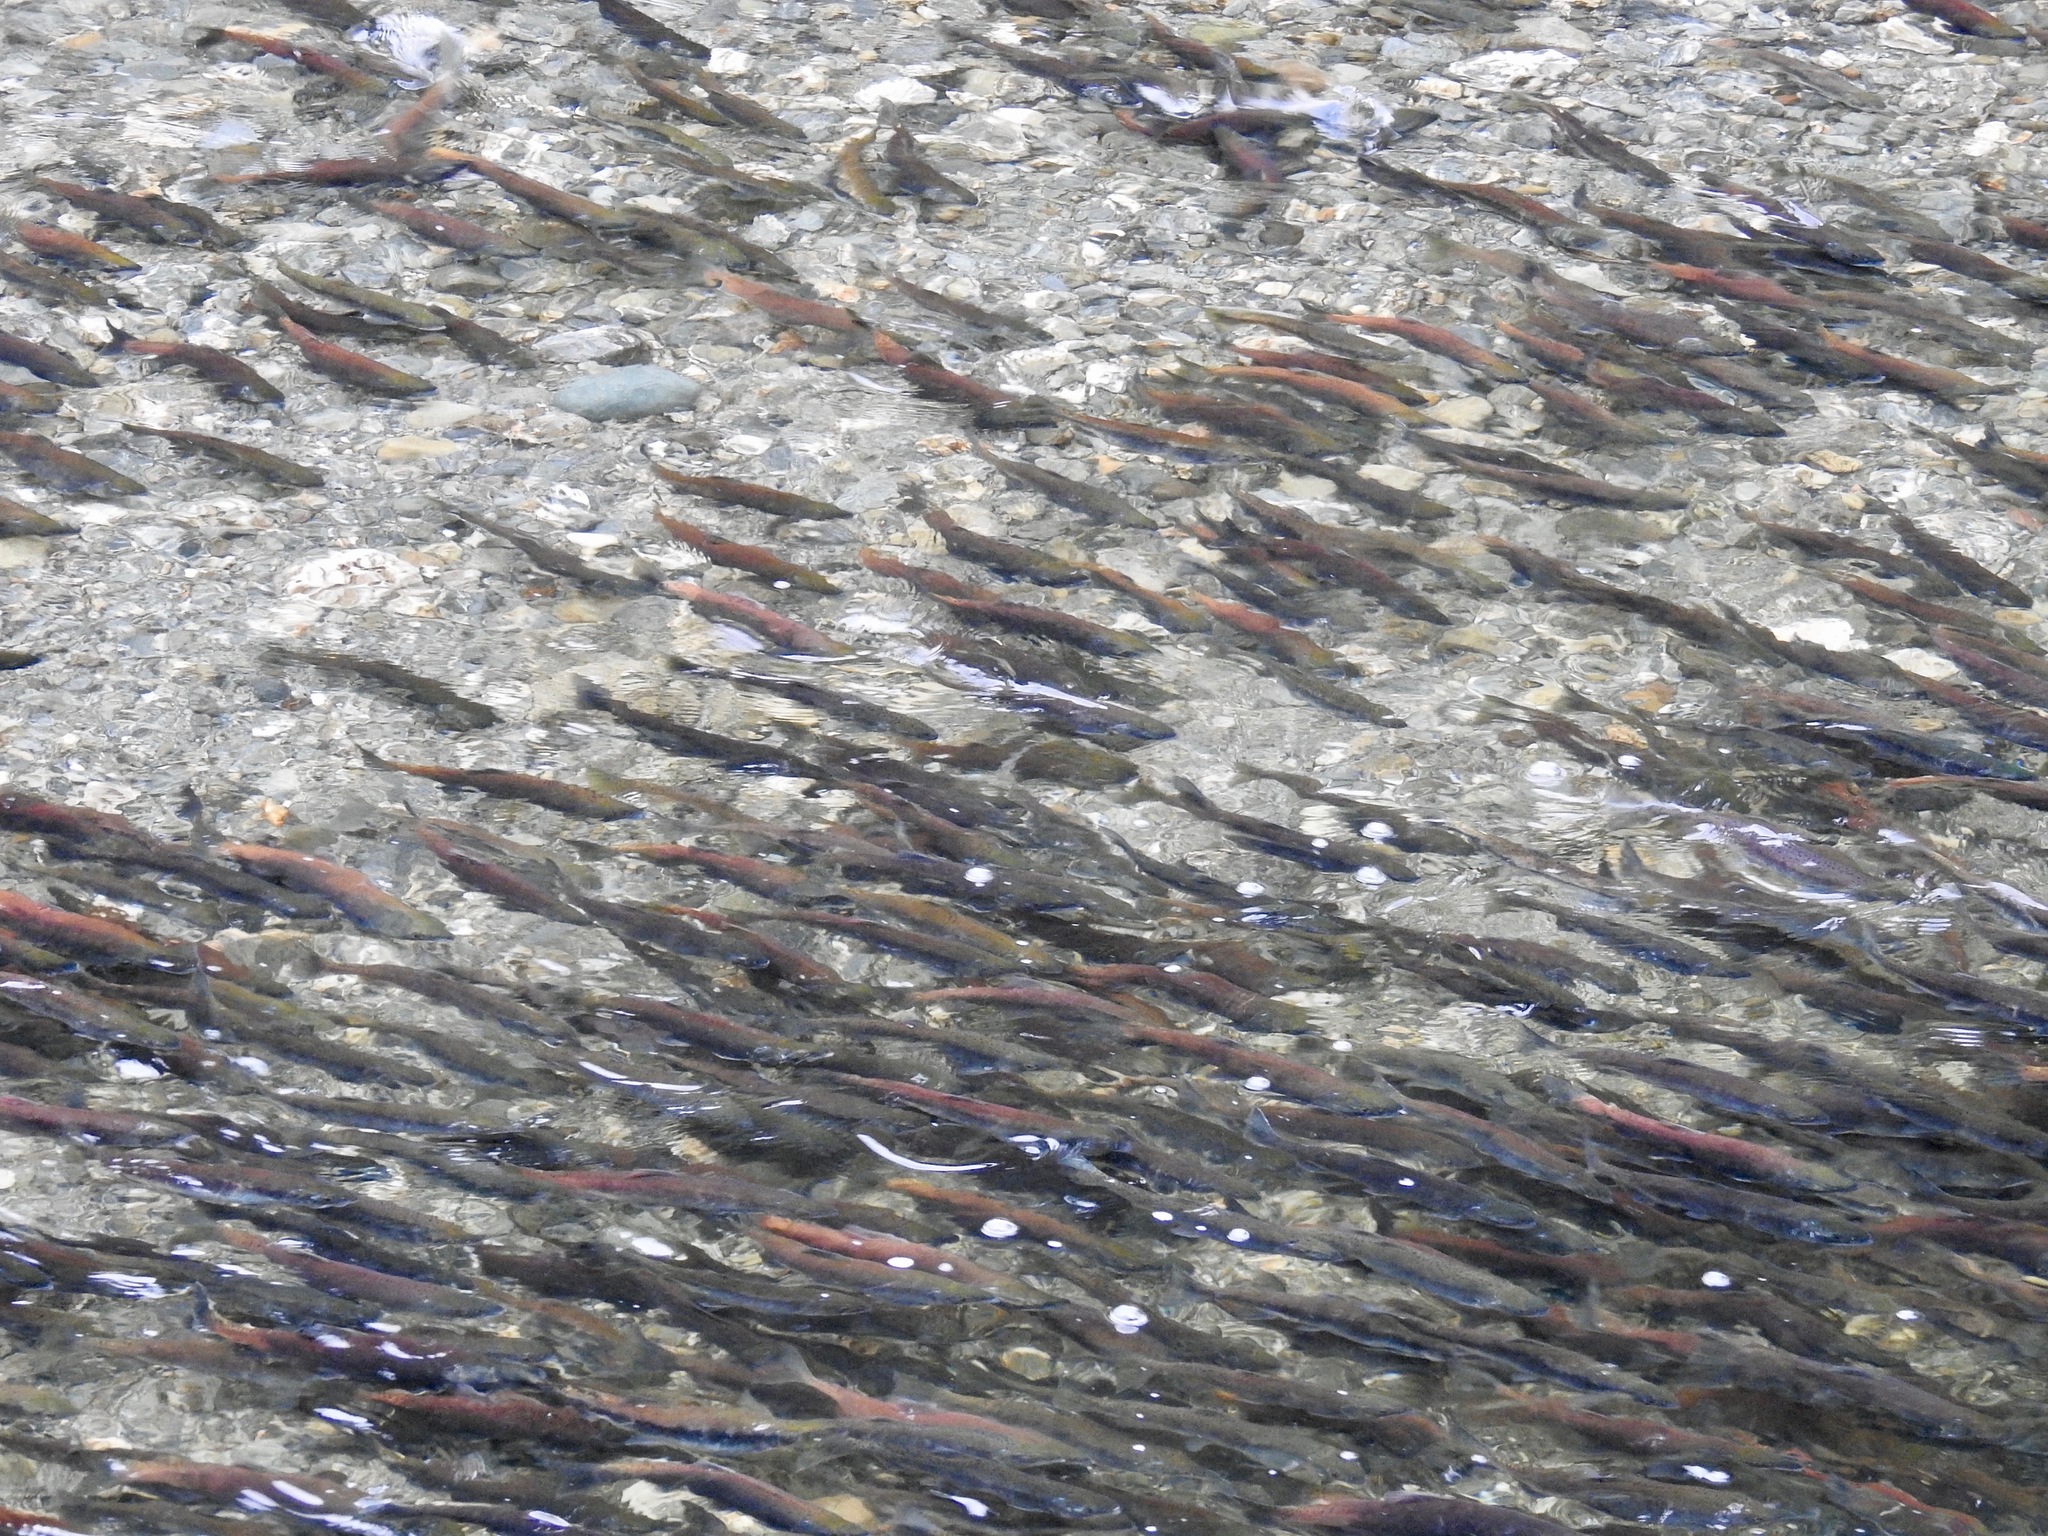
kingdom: Animalia
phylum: Chordata
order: Salmoniformes
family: Salmonidae
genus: Oncorhynchus
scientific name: Oncorhynchus nerka
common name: Sockeye salmon
